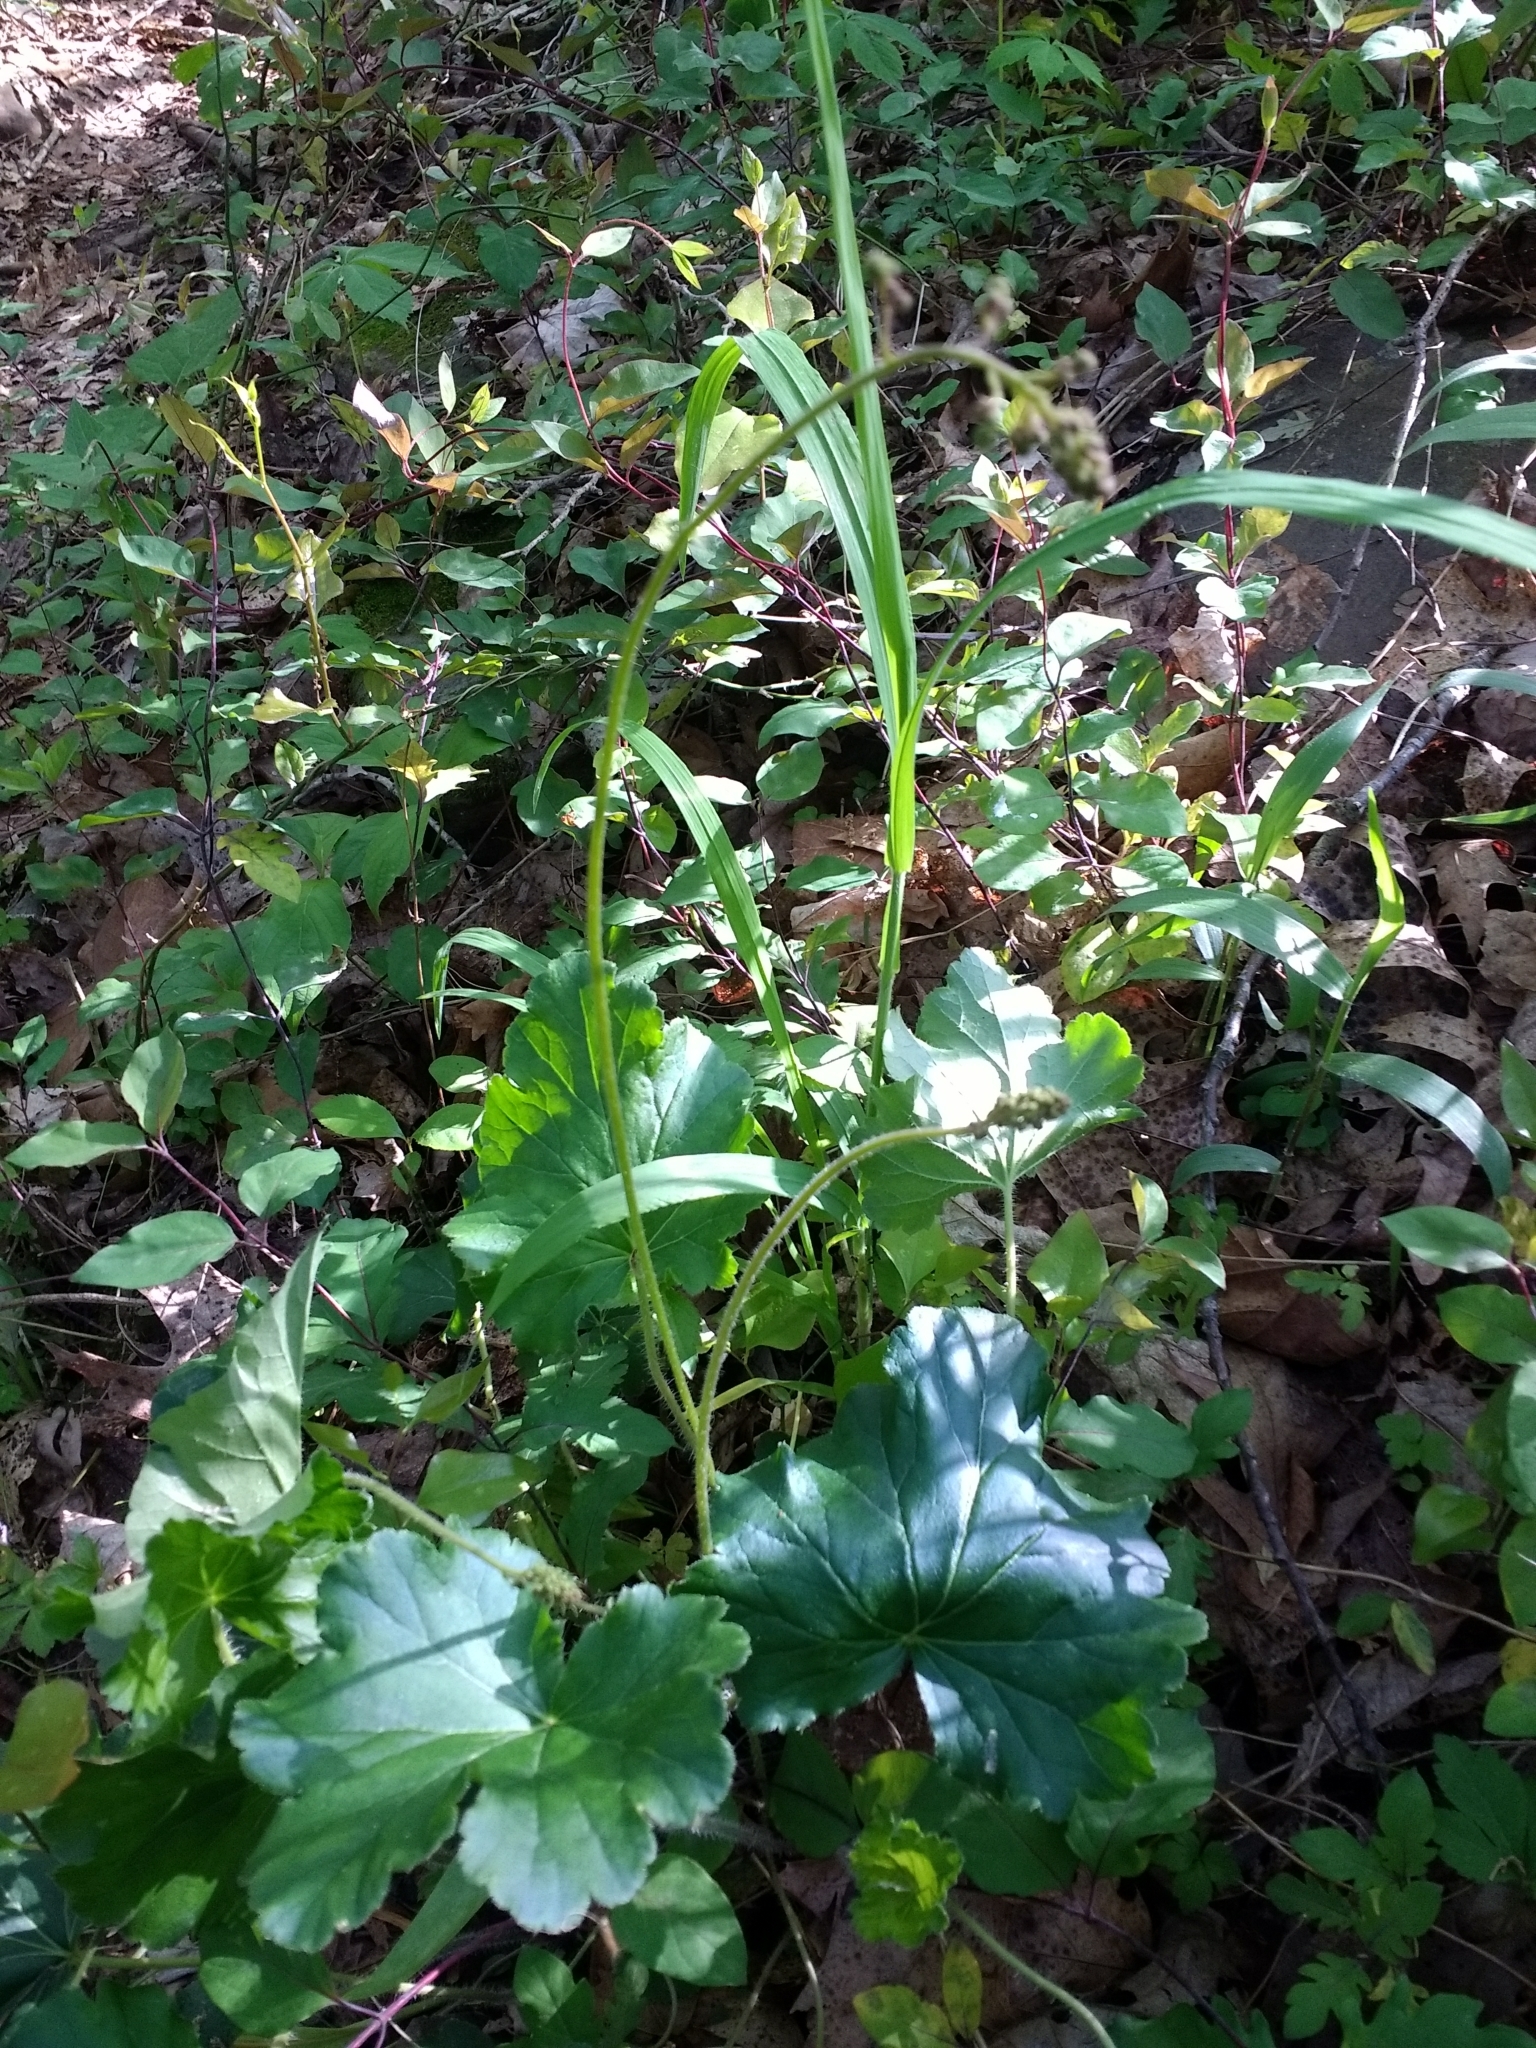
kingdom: Plantae
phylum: Tracheophyta
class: Magnoliopsida
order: Saxifragales
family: Saxifragaceae
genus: Heuchera
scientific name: Heuchera americana
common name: Alumroot
